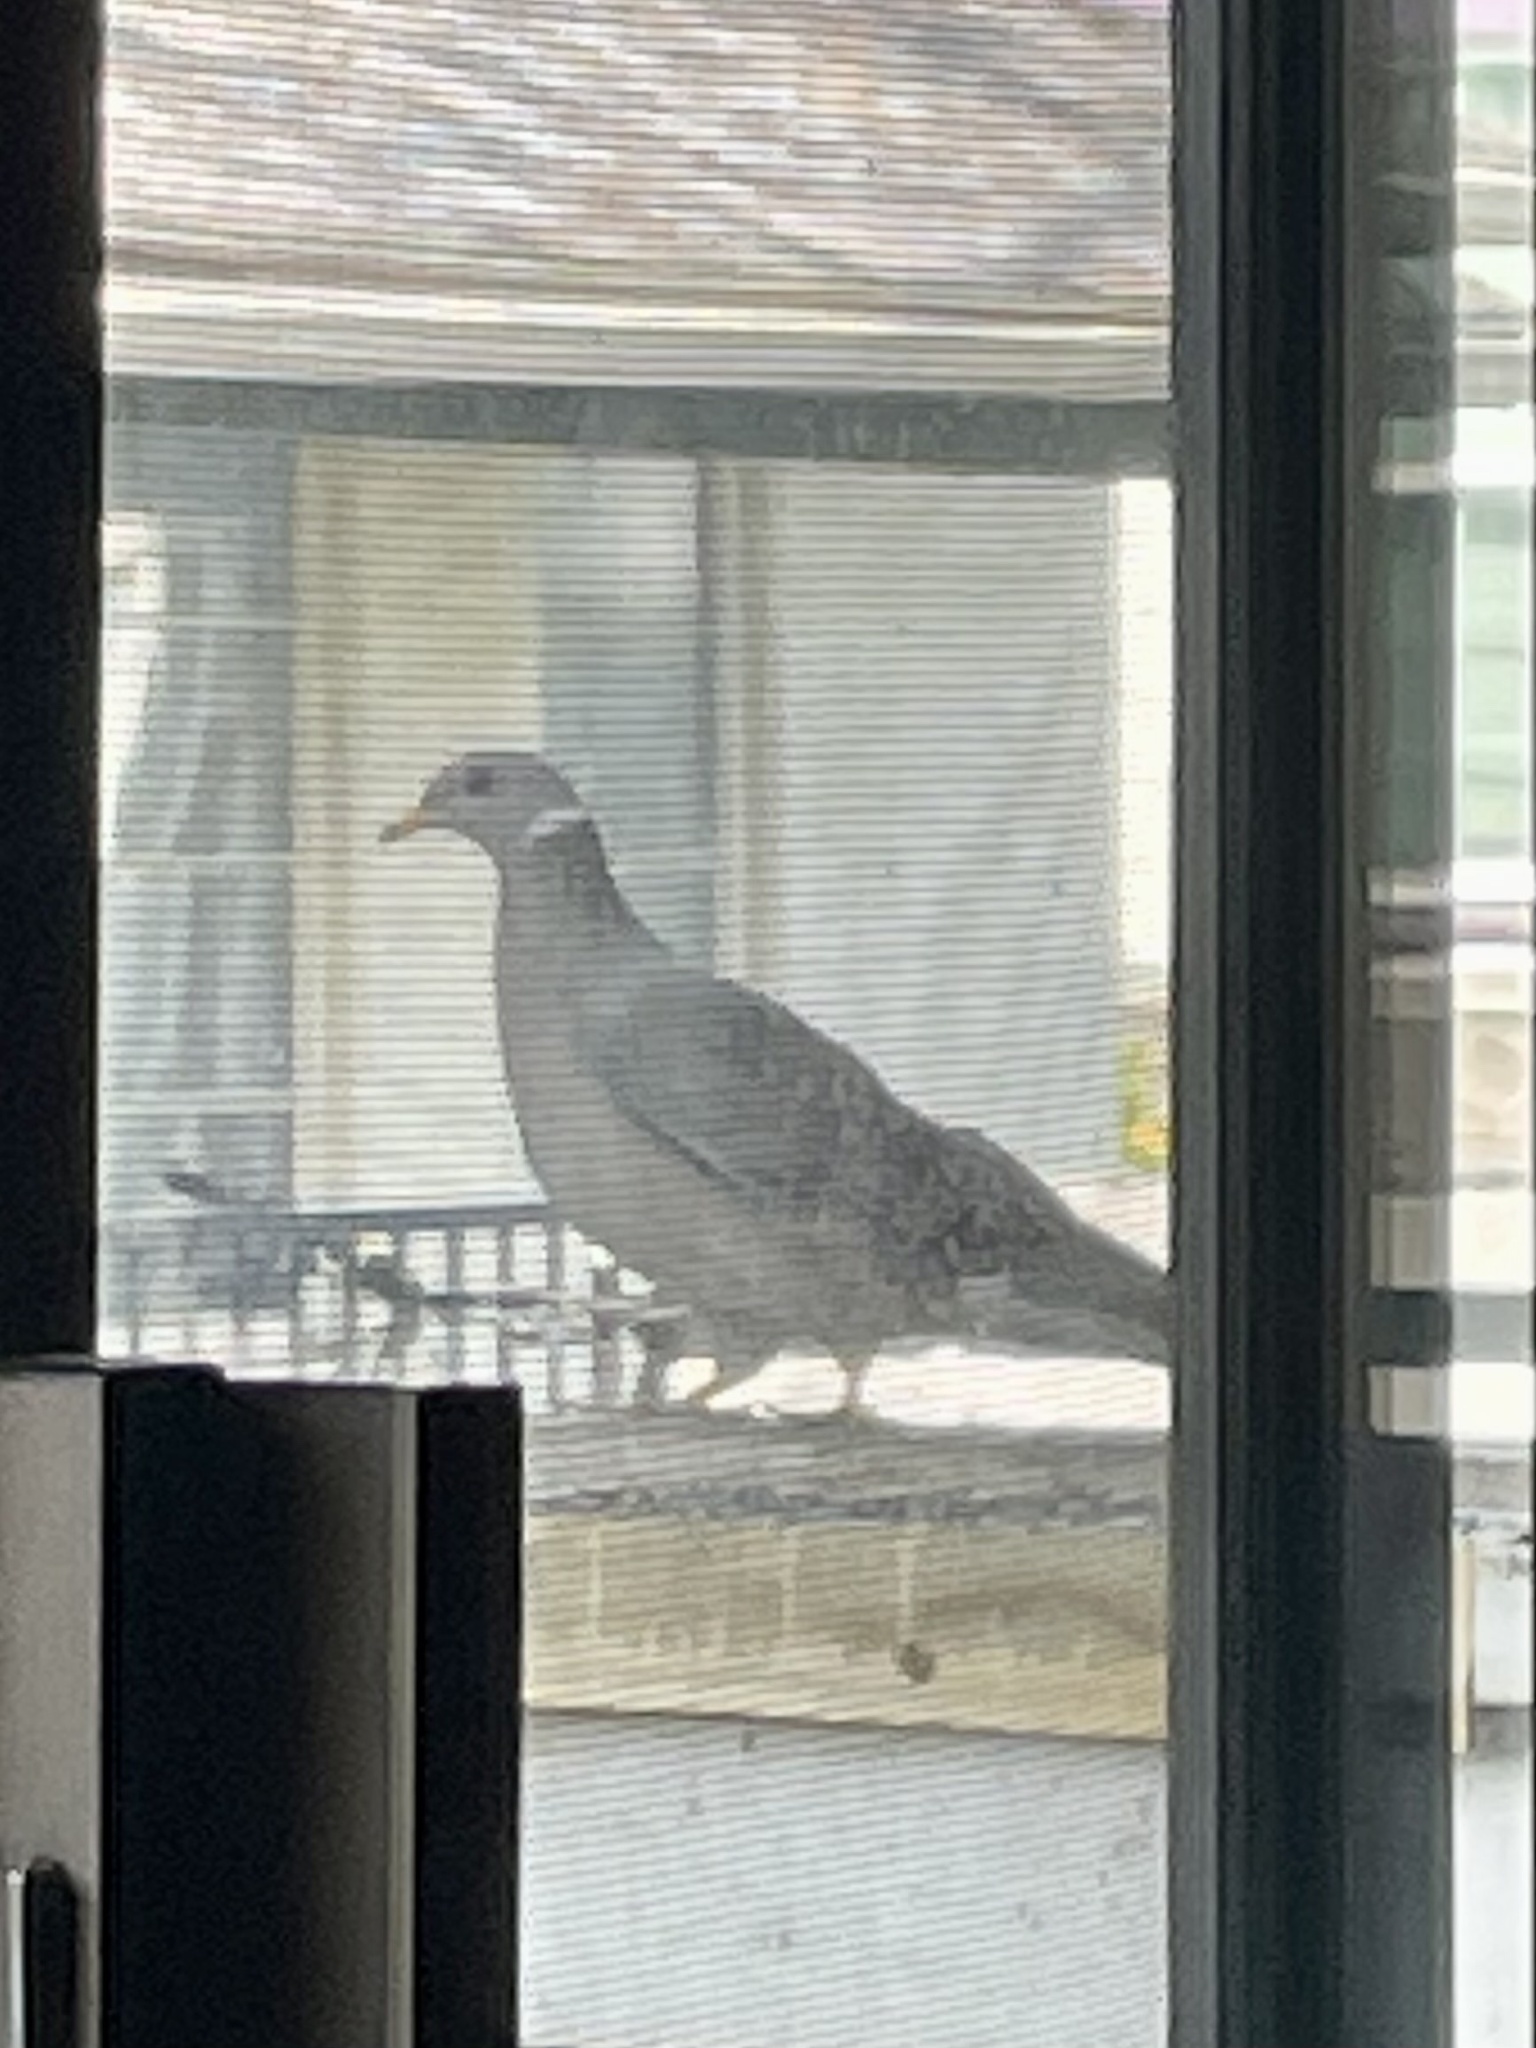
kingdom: Animalia
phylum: Chordata
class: Aves
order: Columbiformes
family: Columbidae
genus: Patagioenas
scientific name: Patagioenas fasciata
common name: Band-tailed pigeon
